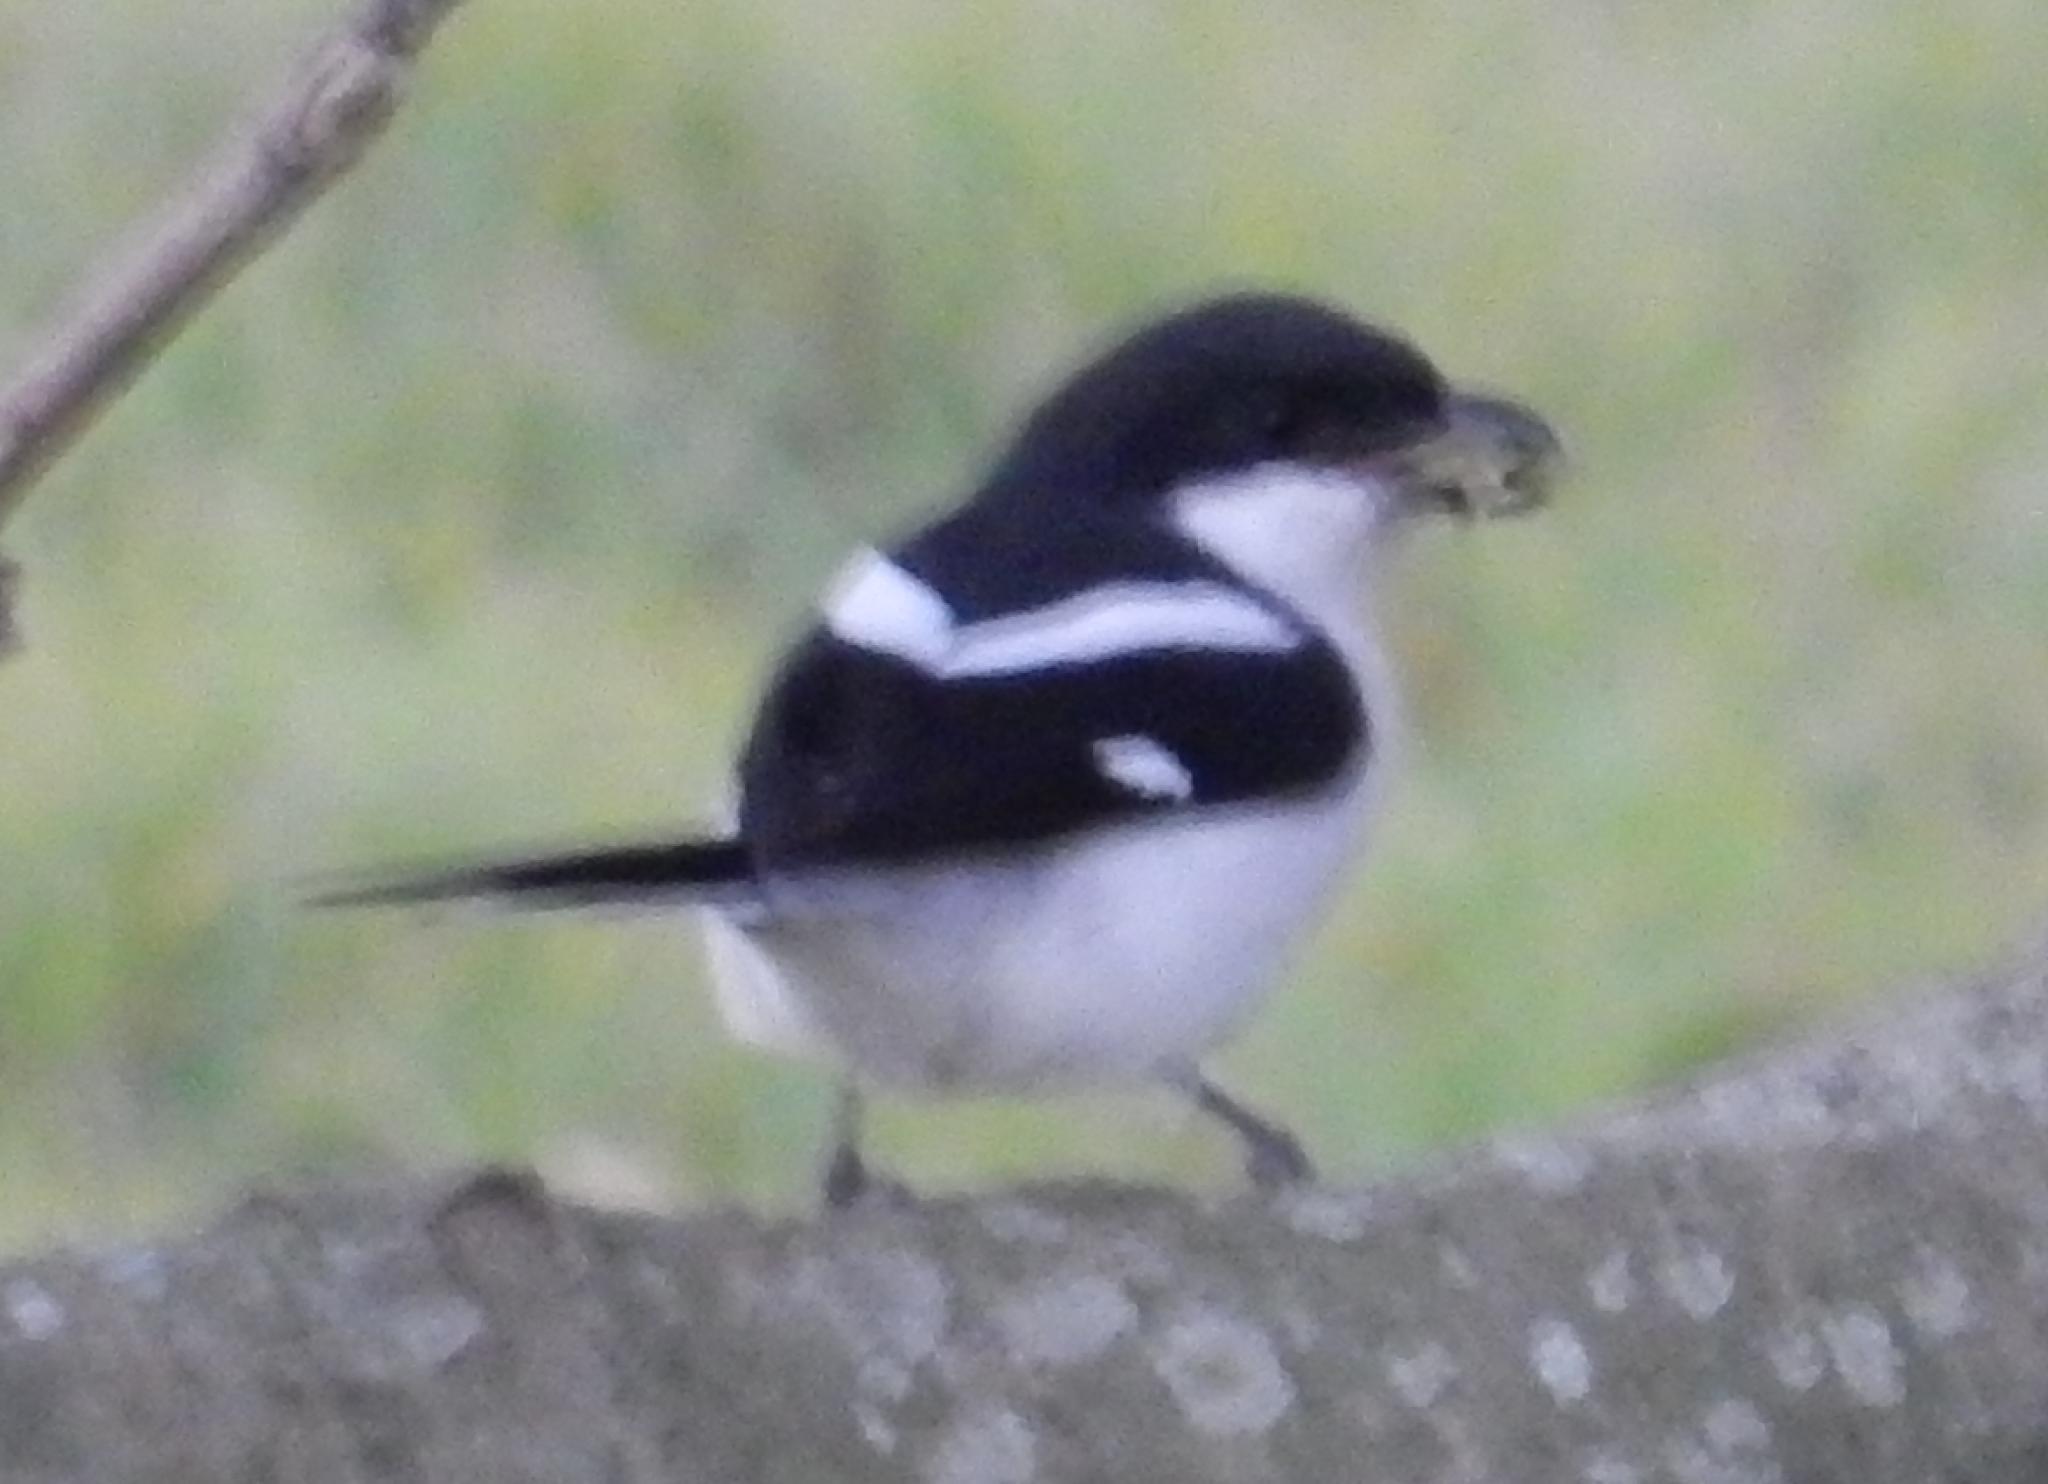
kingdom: Animalia
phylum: Chordata
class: Aves
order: Passeriformes
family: Laniidae
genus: Lanius
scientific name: Lanius collaris
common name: Southern fiscal
